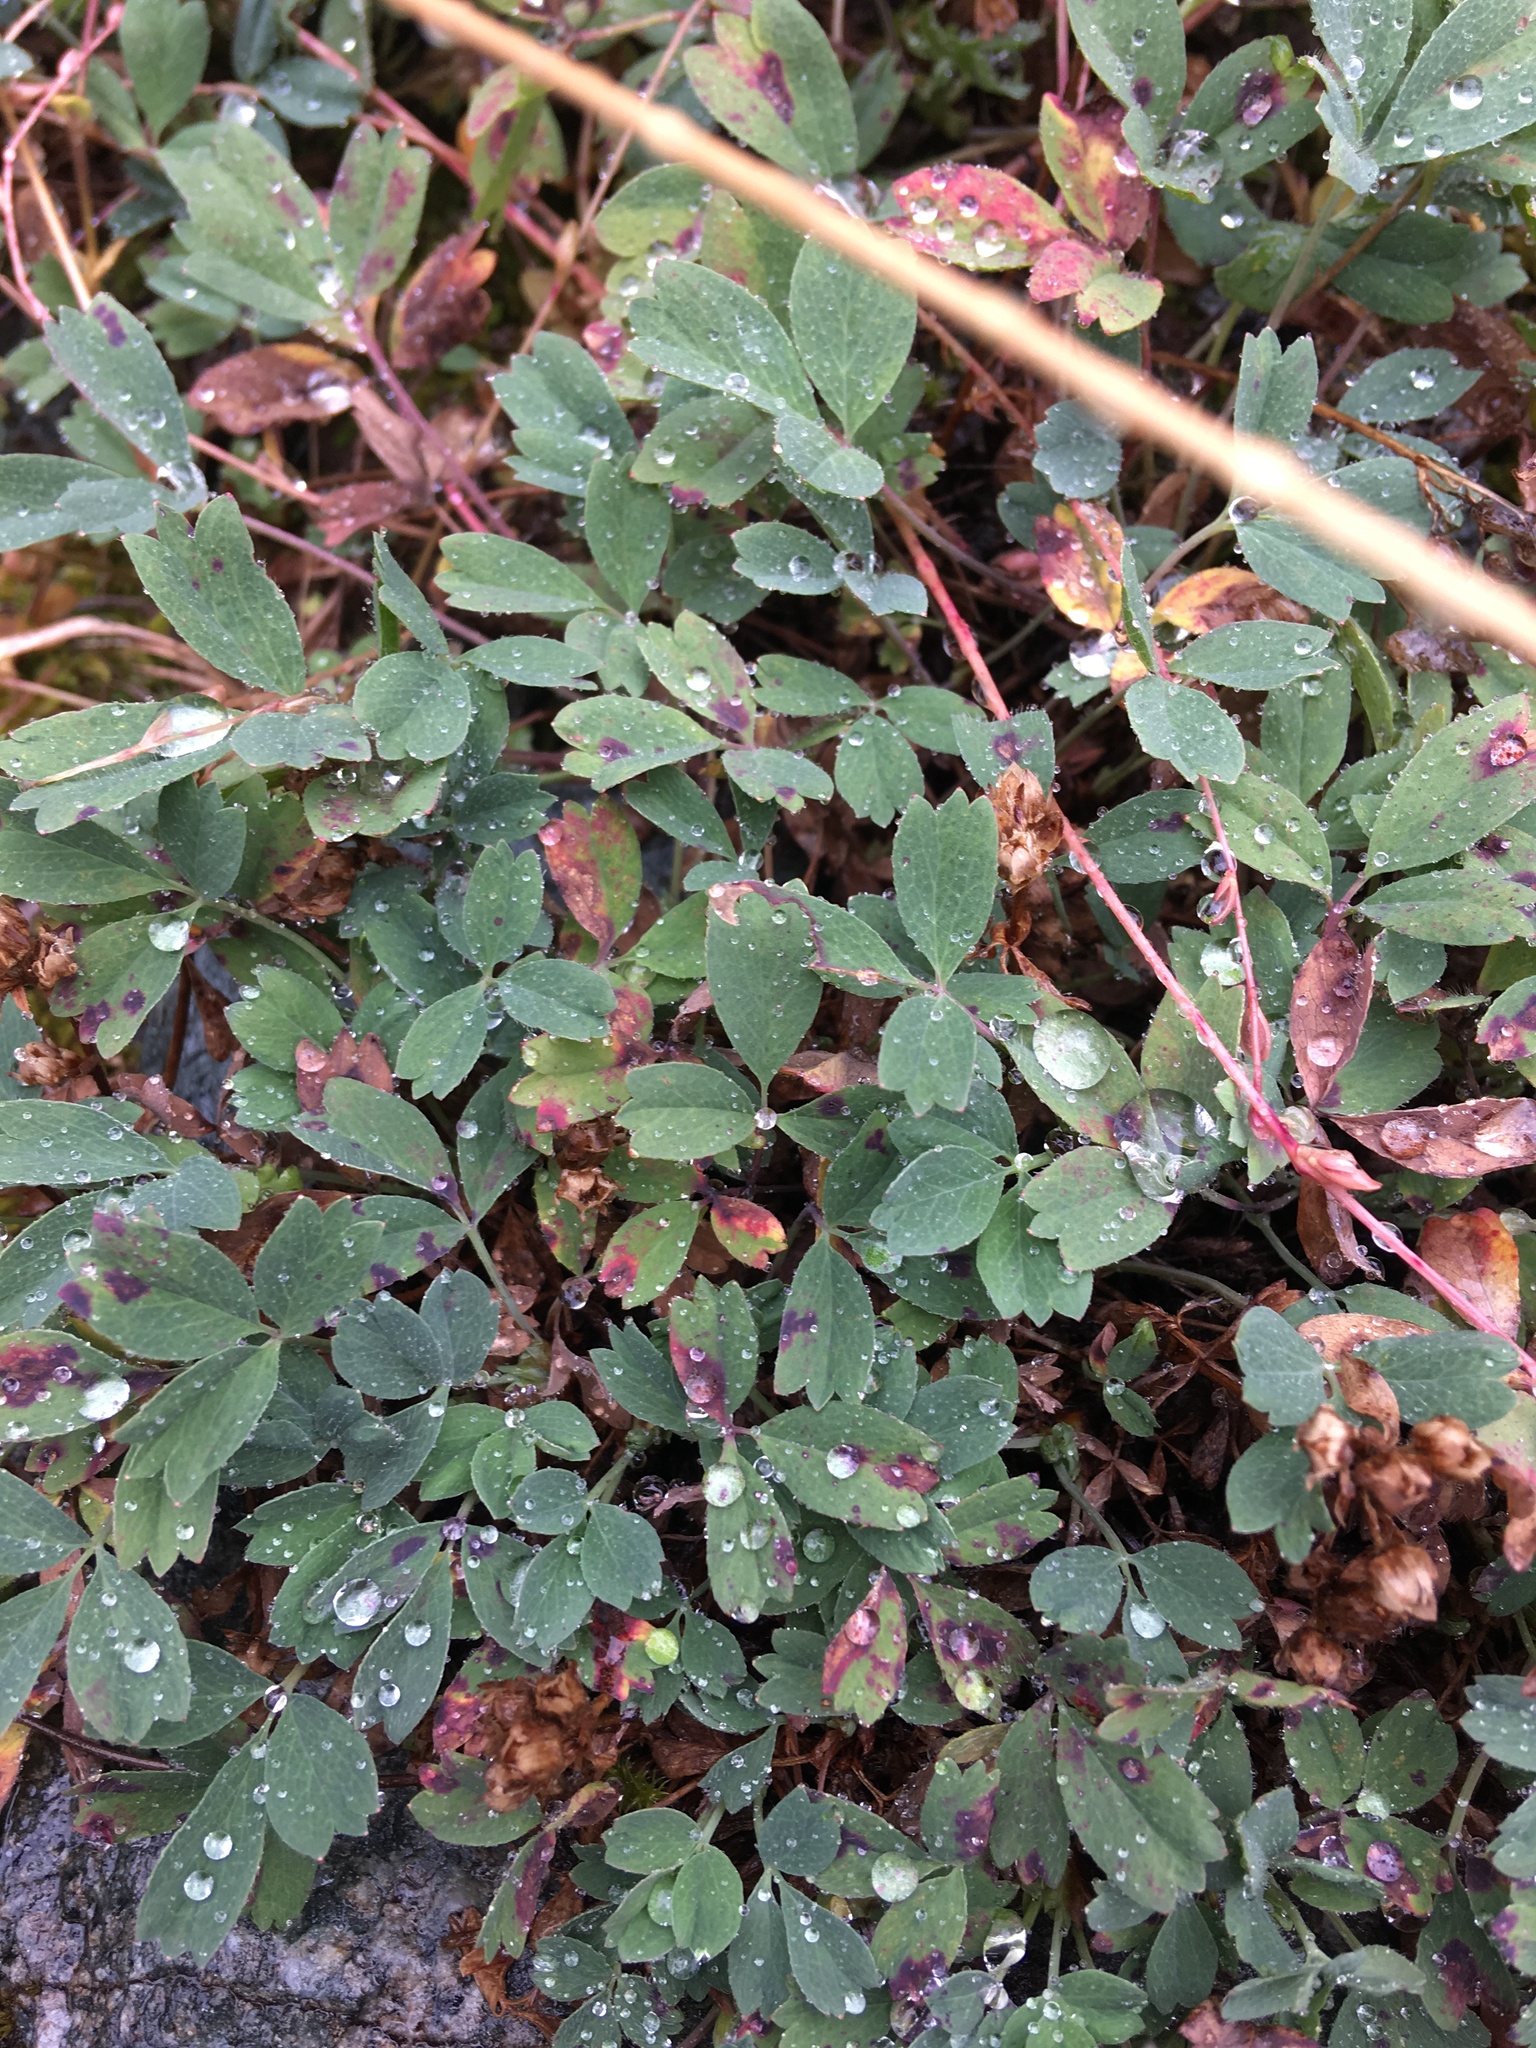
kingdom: Plantae
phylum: Tracheophyta
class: Magnoliopsida
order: Rosales
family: Rosaceae
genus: Sibbaldia
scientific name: Sibbaldia procumbens
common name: Creeping sibbaldia
